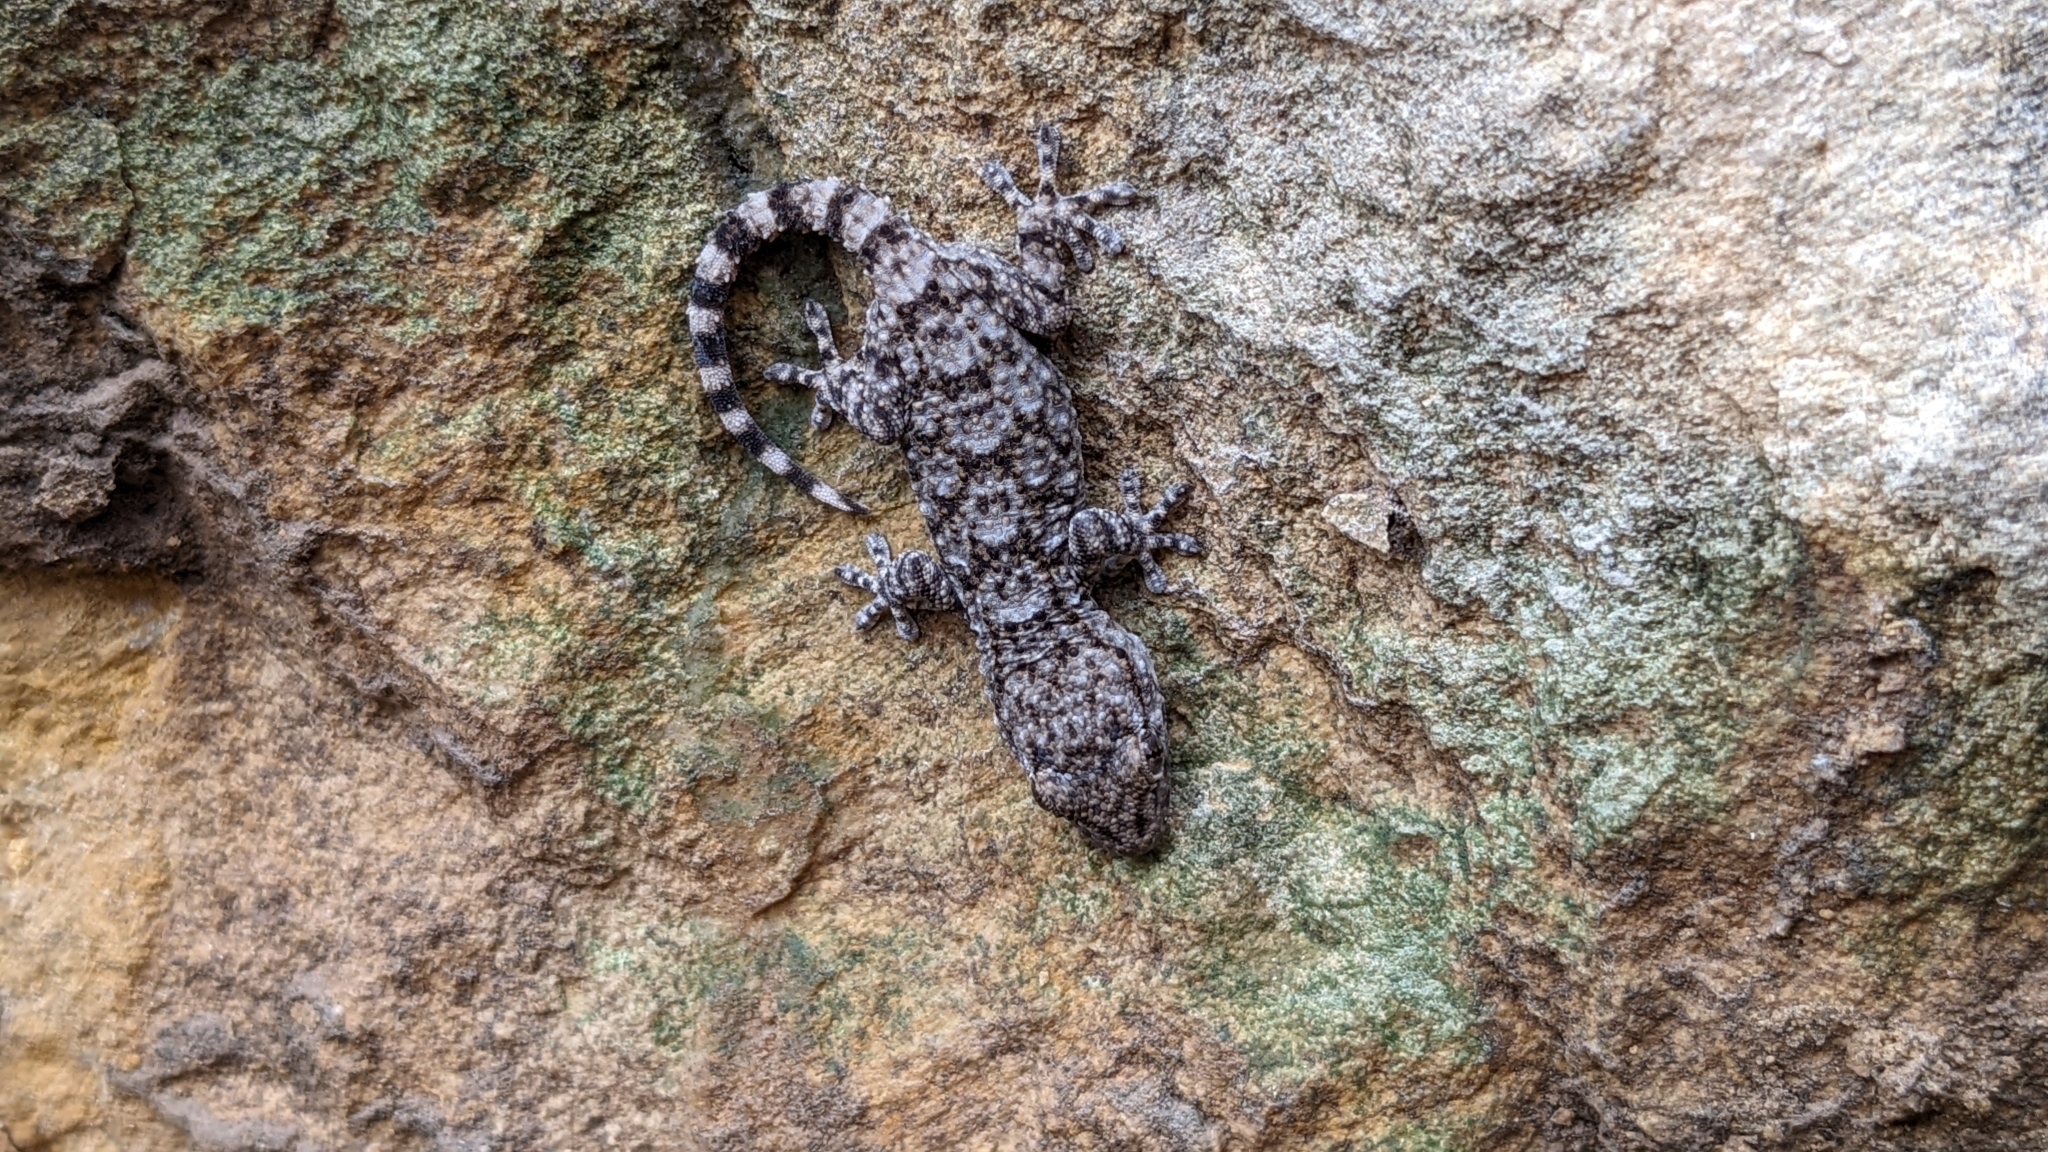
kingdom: Animalia
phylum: Chordata
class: Squamata
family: Phyllodactylidae
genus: Tarentola
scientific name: Tarentola mauritanica
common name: Moorish gecko
